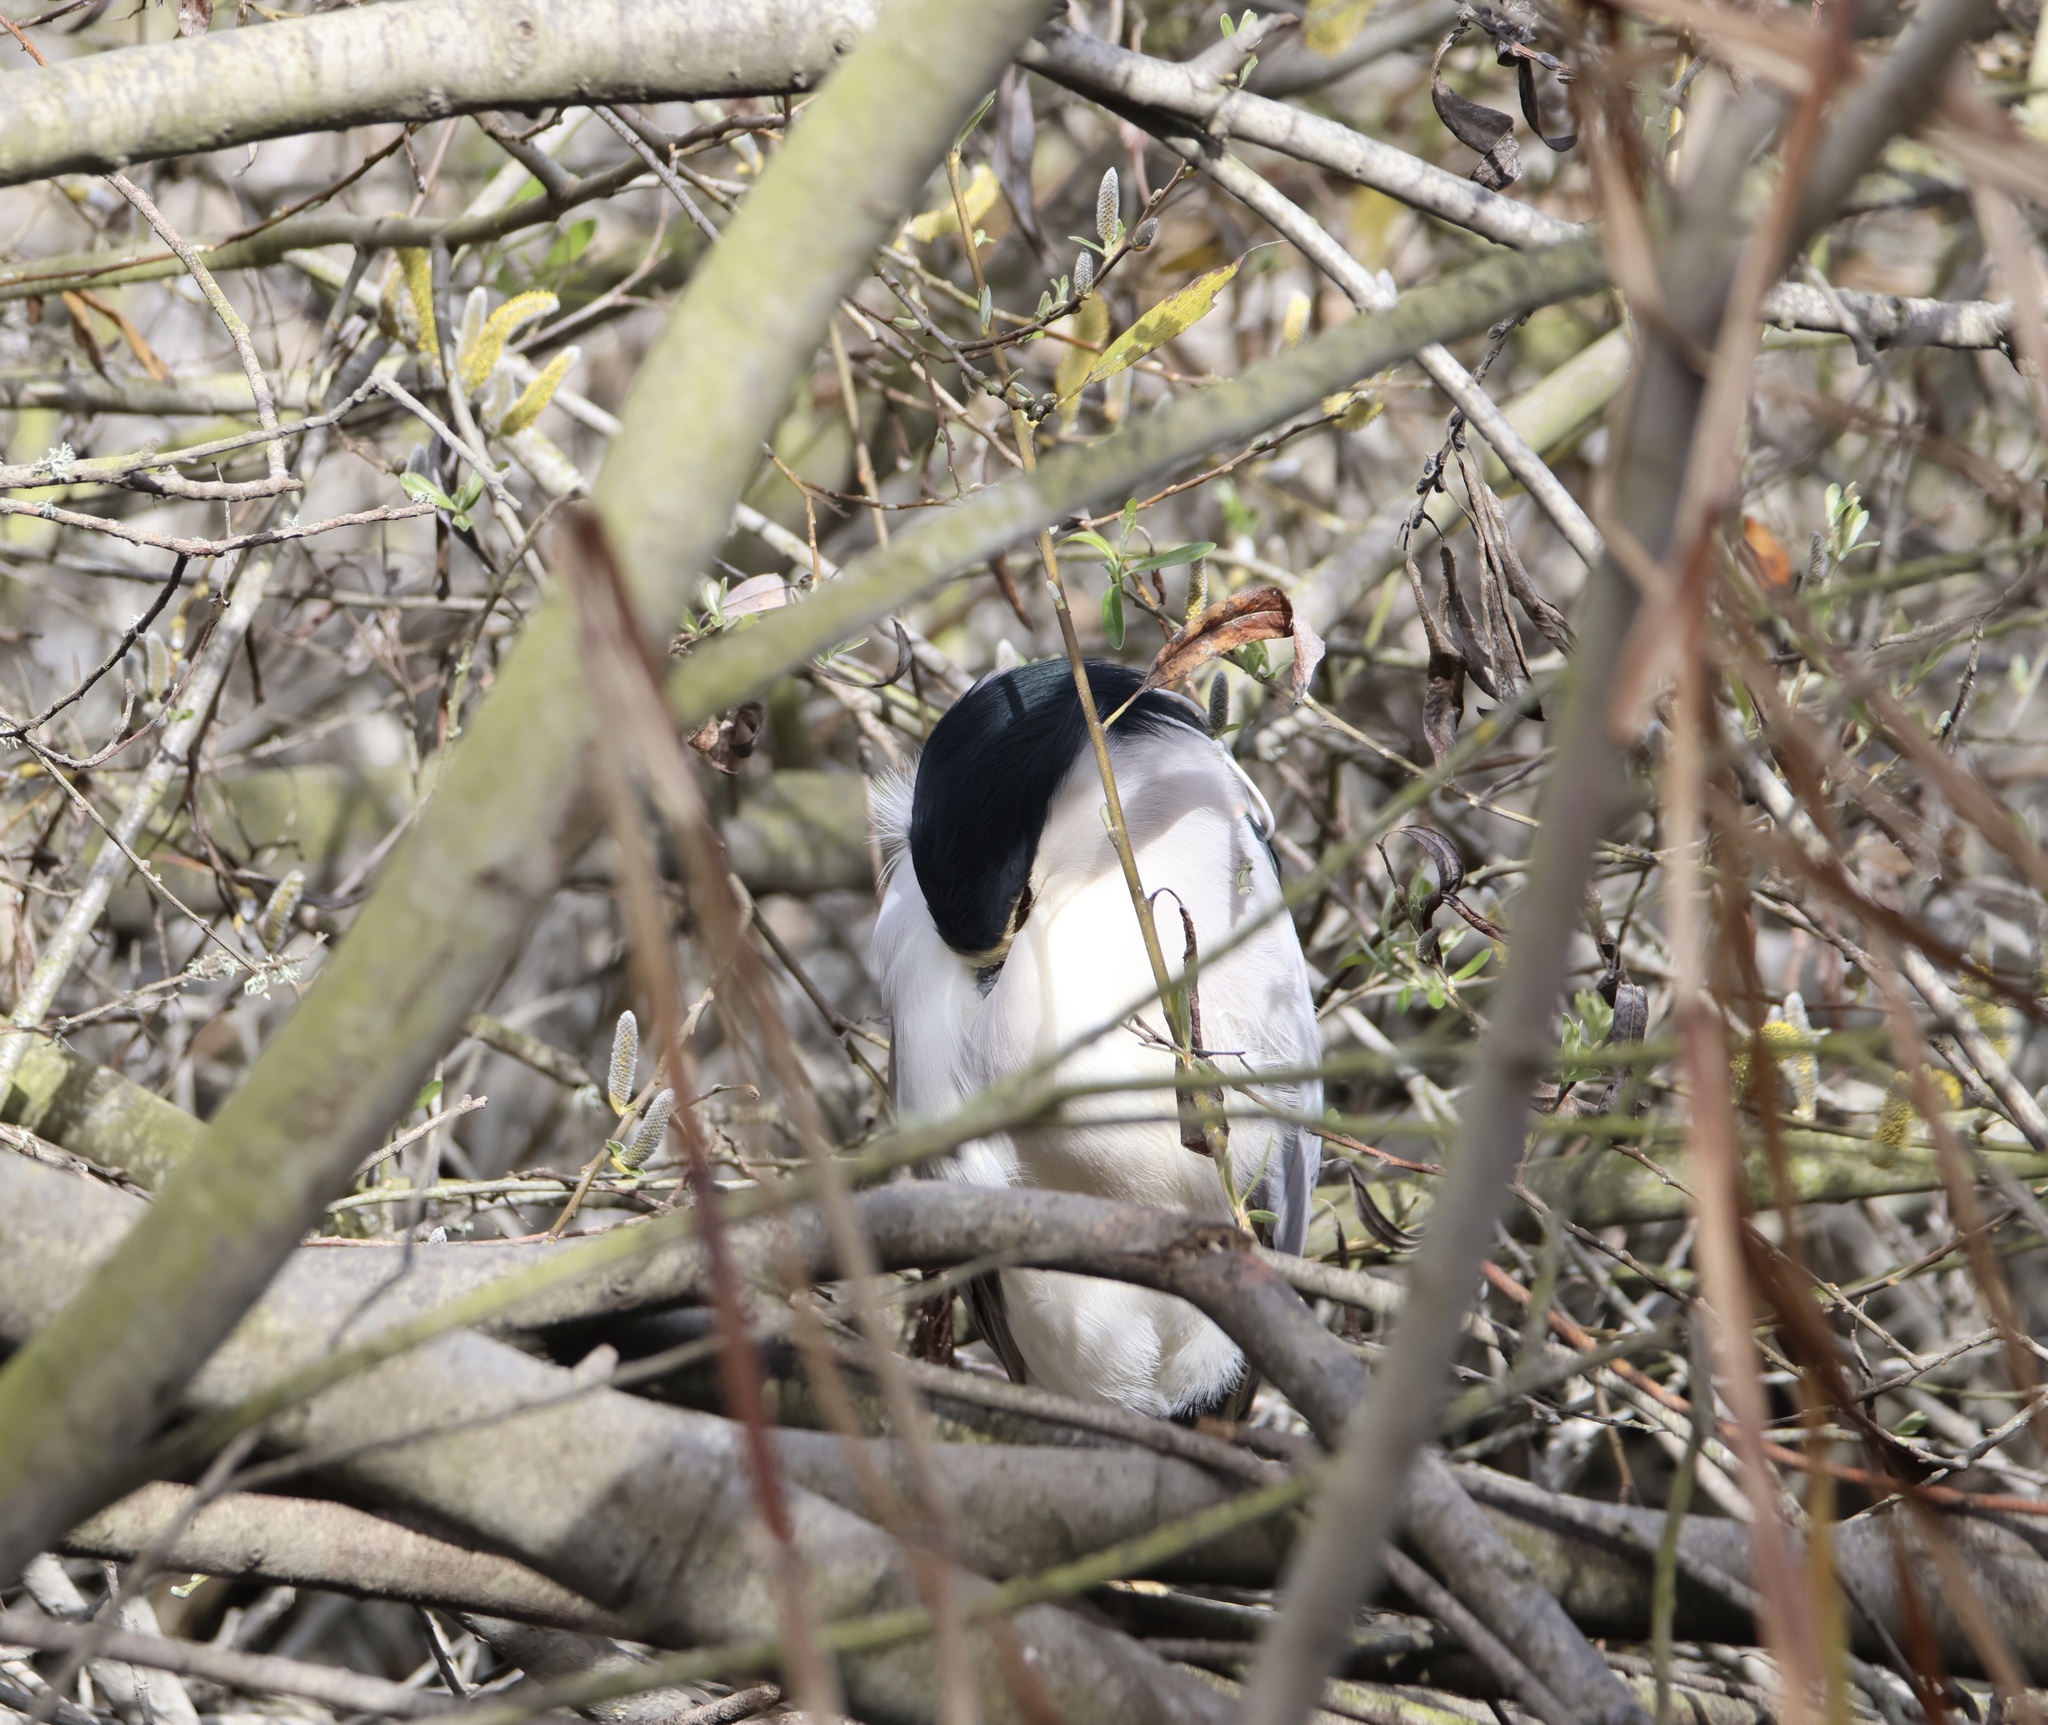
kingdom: Animalia
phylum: Chordata
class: Aves
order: Pelecaniformes
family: Ardeidae
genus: Nycticorax
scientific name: Nycticorax nycticorax
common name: Black-crowned night heron
